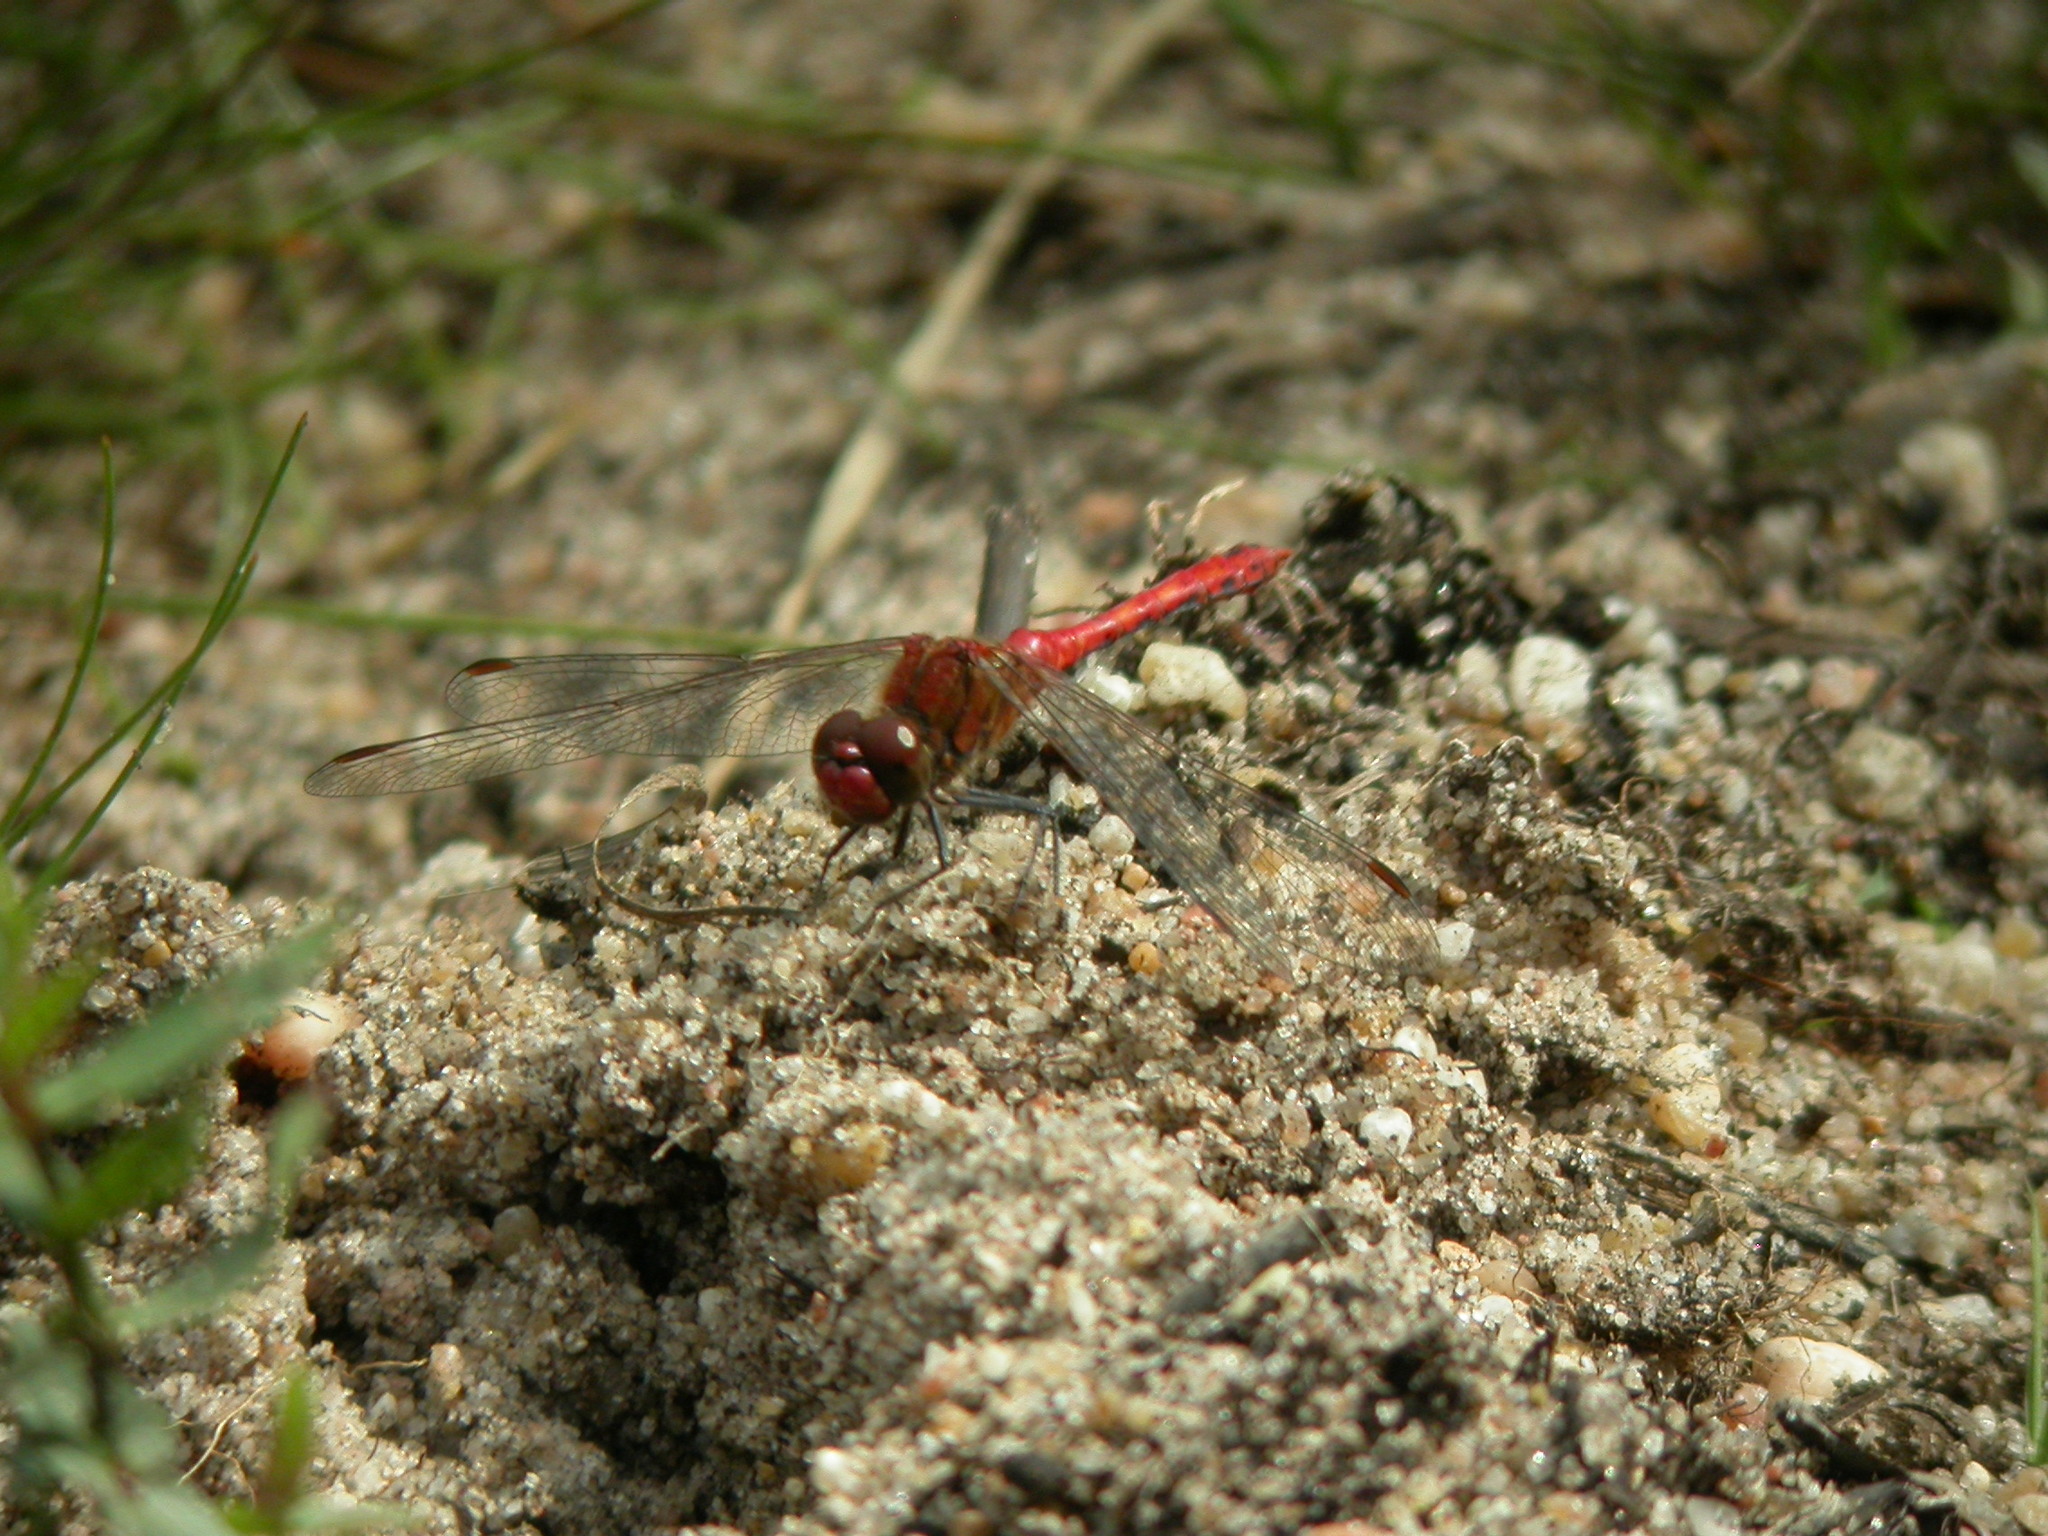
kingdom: Animalia
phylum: Arthropoda
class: Insecta
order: Odonata
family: Libellulidae
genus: Sympetrum
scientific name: Sympetrum sanguineum
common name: Ruddy darter
